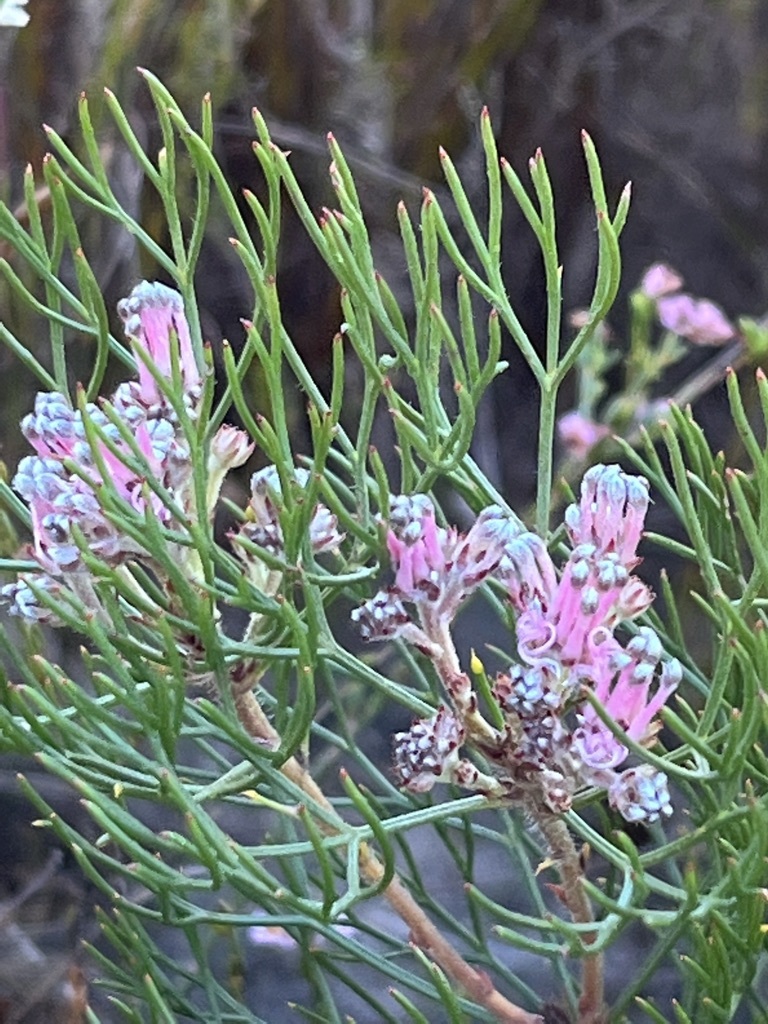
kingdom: Plantae
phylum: Tracheophyta
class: Magnoliopsida
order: Proteales
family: Proteaceae
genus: Serruria
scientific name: Serruria fasciflora
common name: Common pin spiderhead
